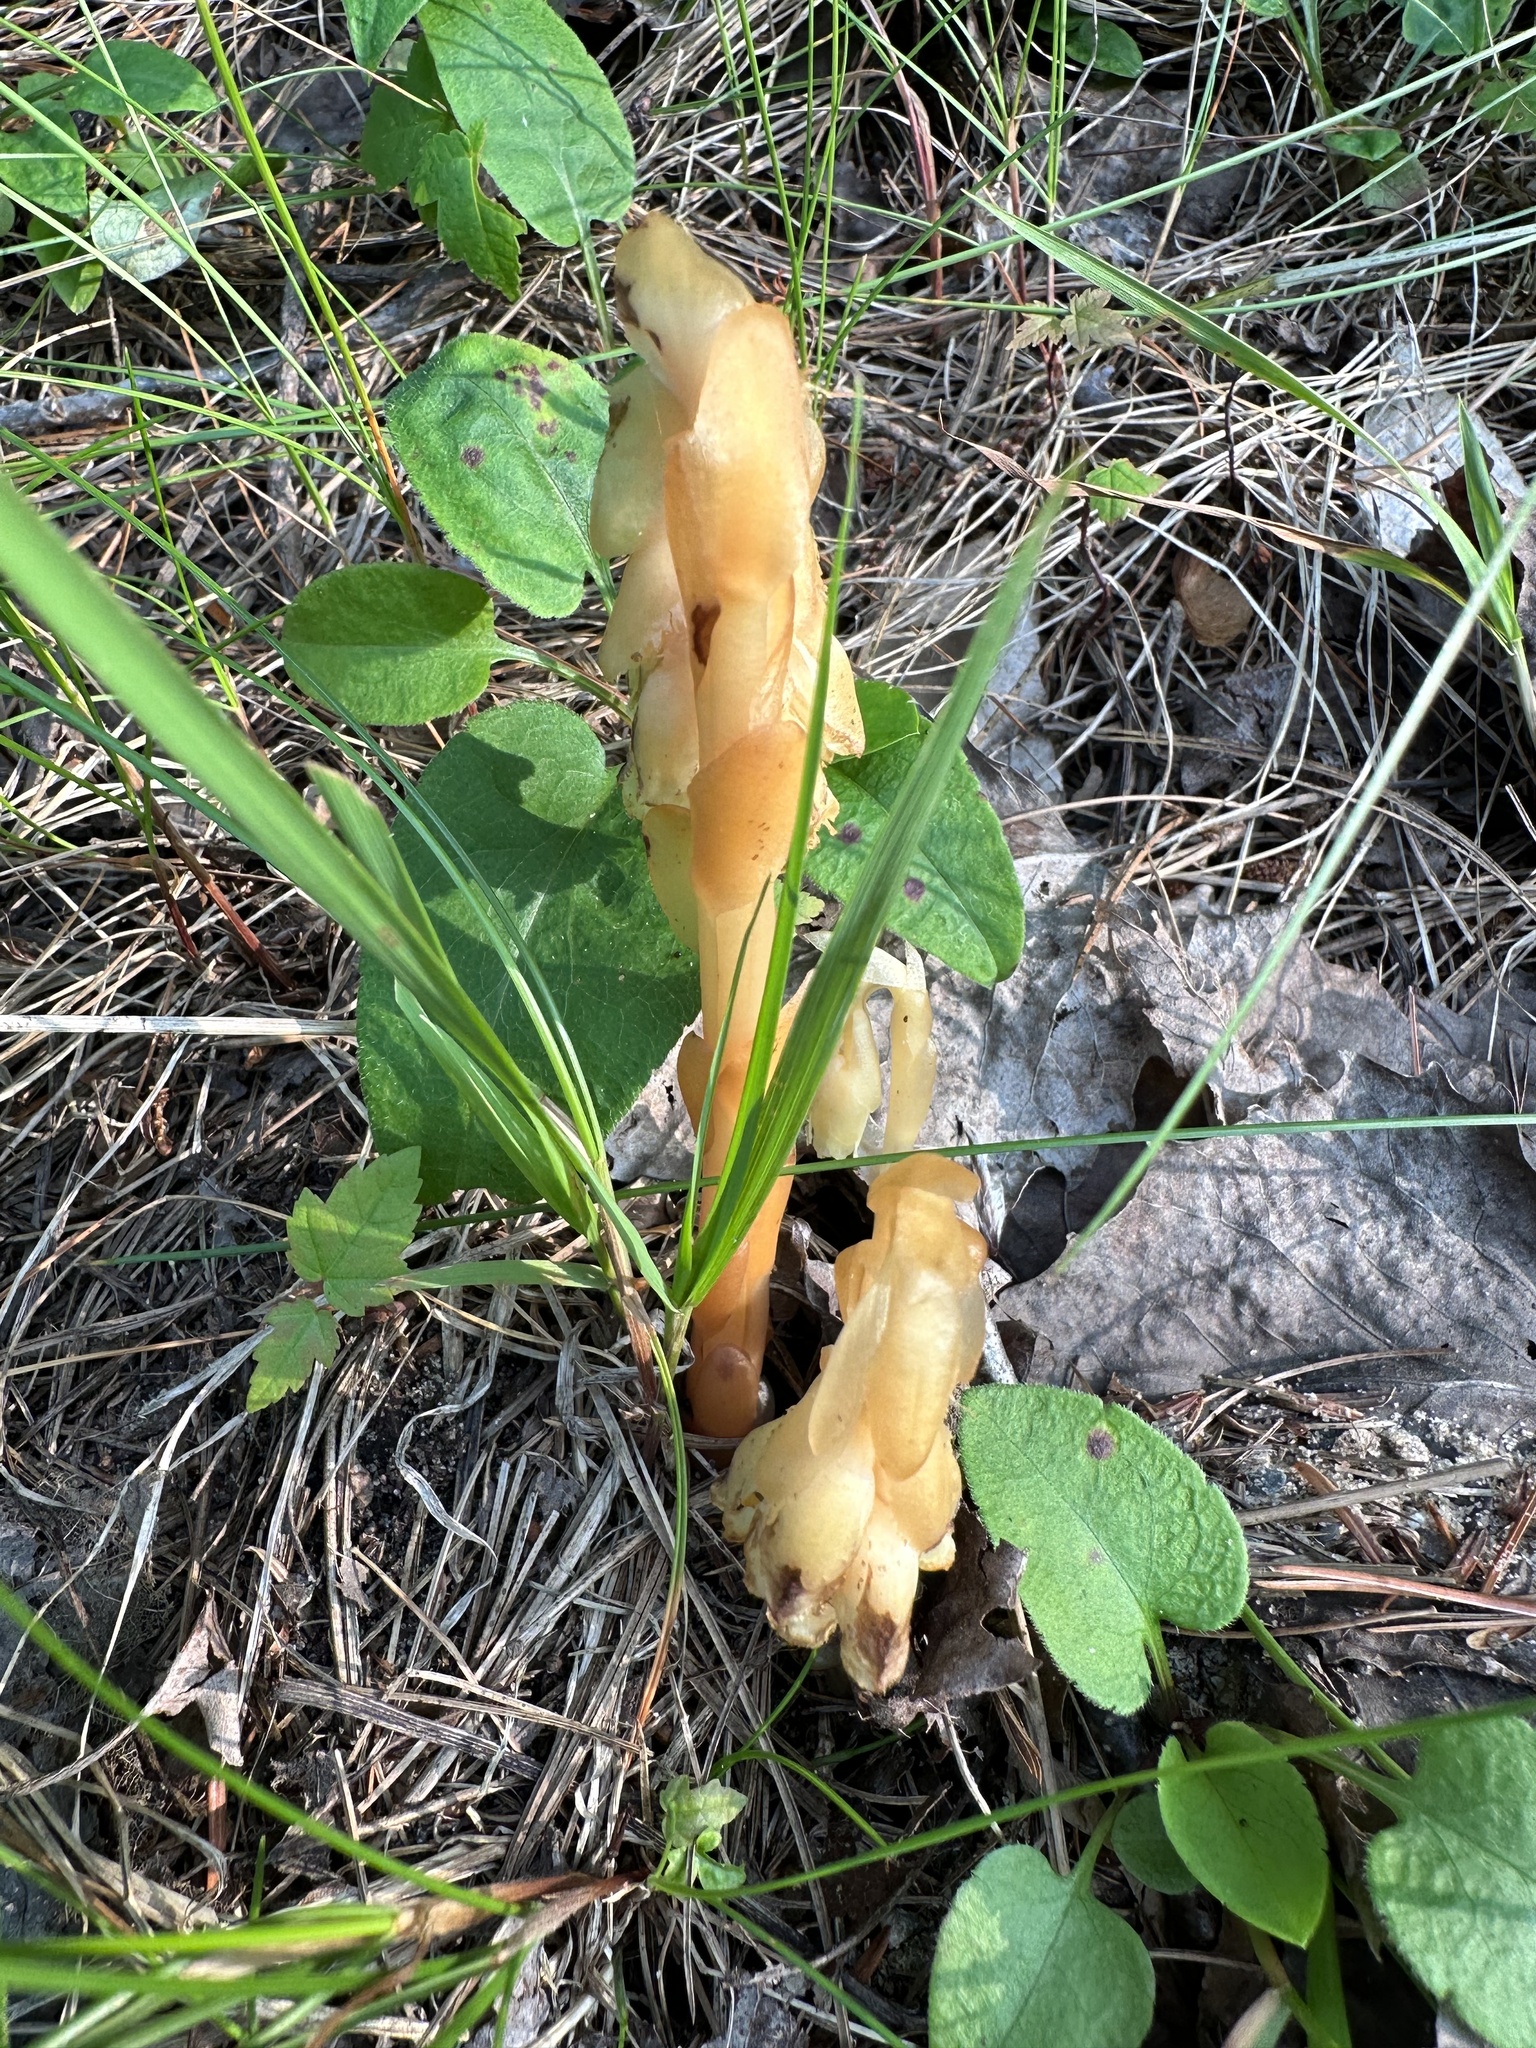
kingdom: Plantae
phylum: Tracheophyta
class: Magnoliopsida
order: Ericales
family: Ericaceae
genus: Hypopitys
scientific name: Hypopitys monotropa
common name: Yellow bird's-nest
